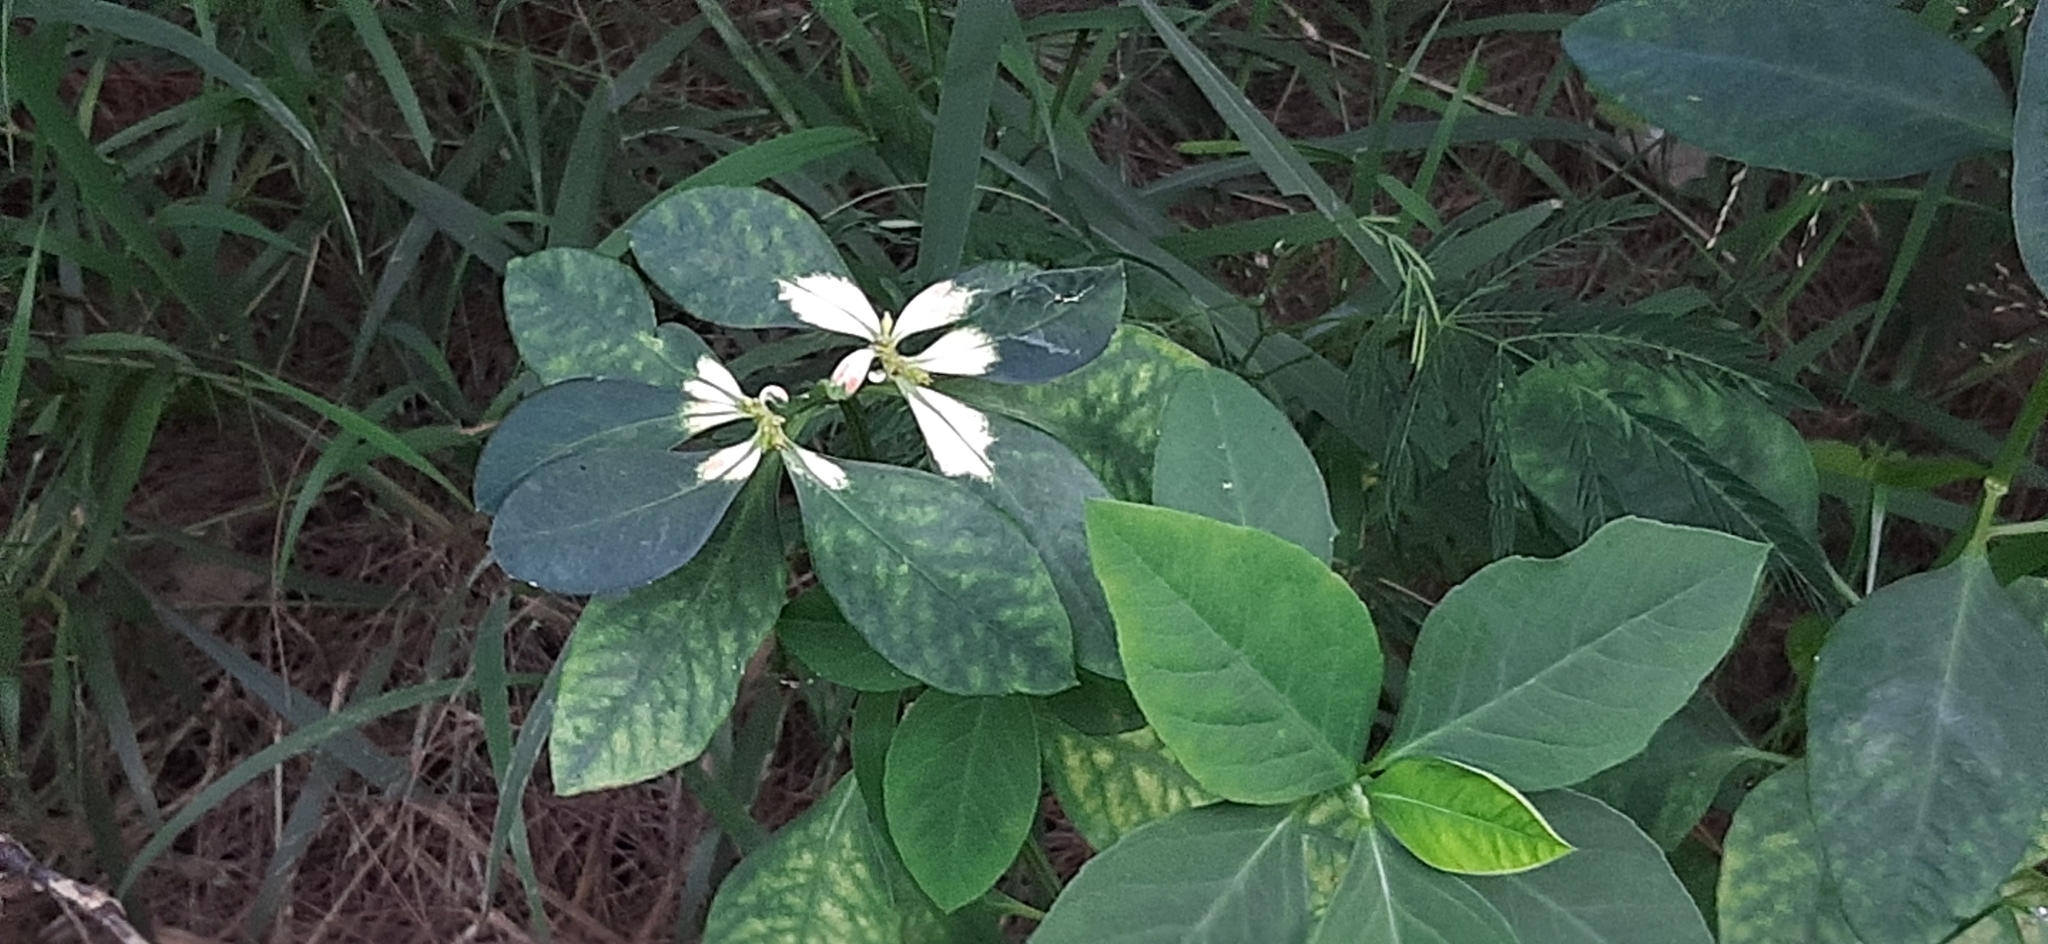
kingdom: Plantae
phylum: Tracheophyta
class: Magnoliopsida
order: Malpighiales
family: Euphorbiaceae
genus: Euphorbia
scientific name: Euphorbia heterophylla
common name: Mexican fireplant
